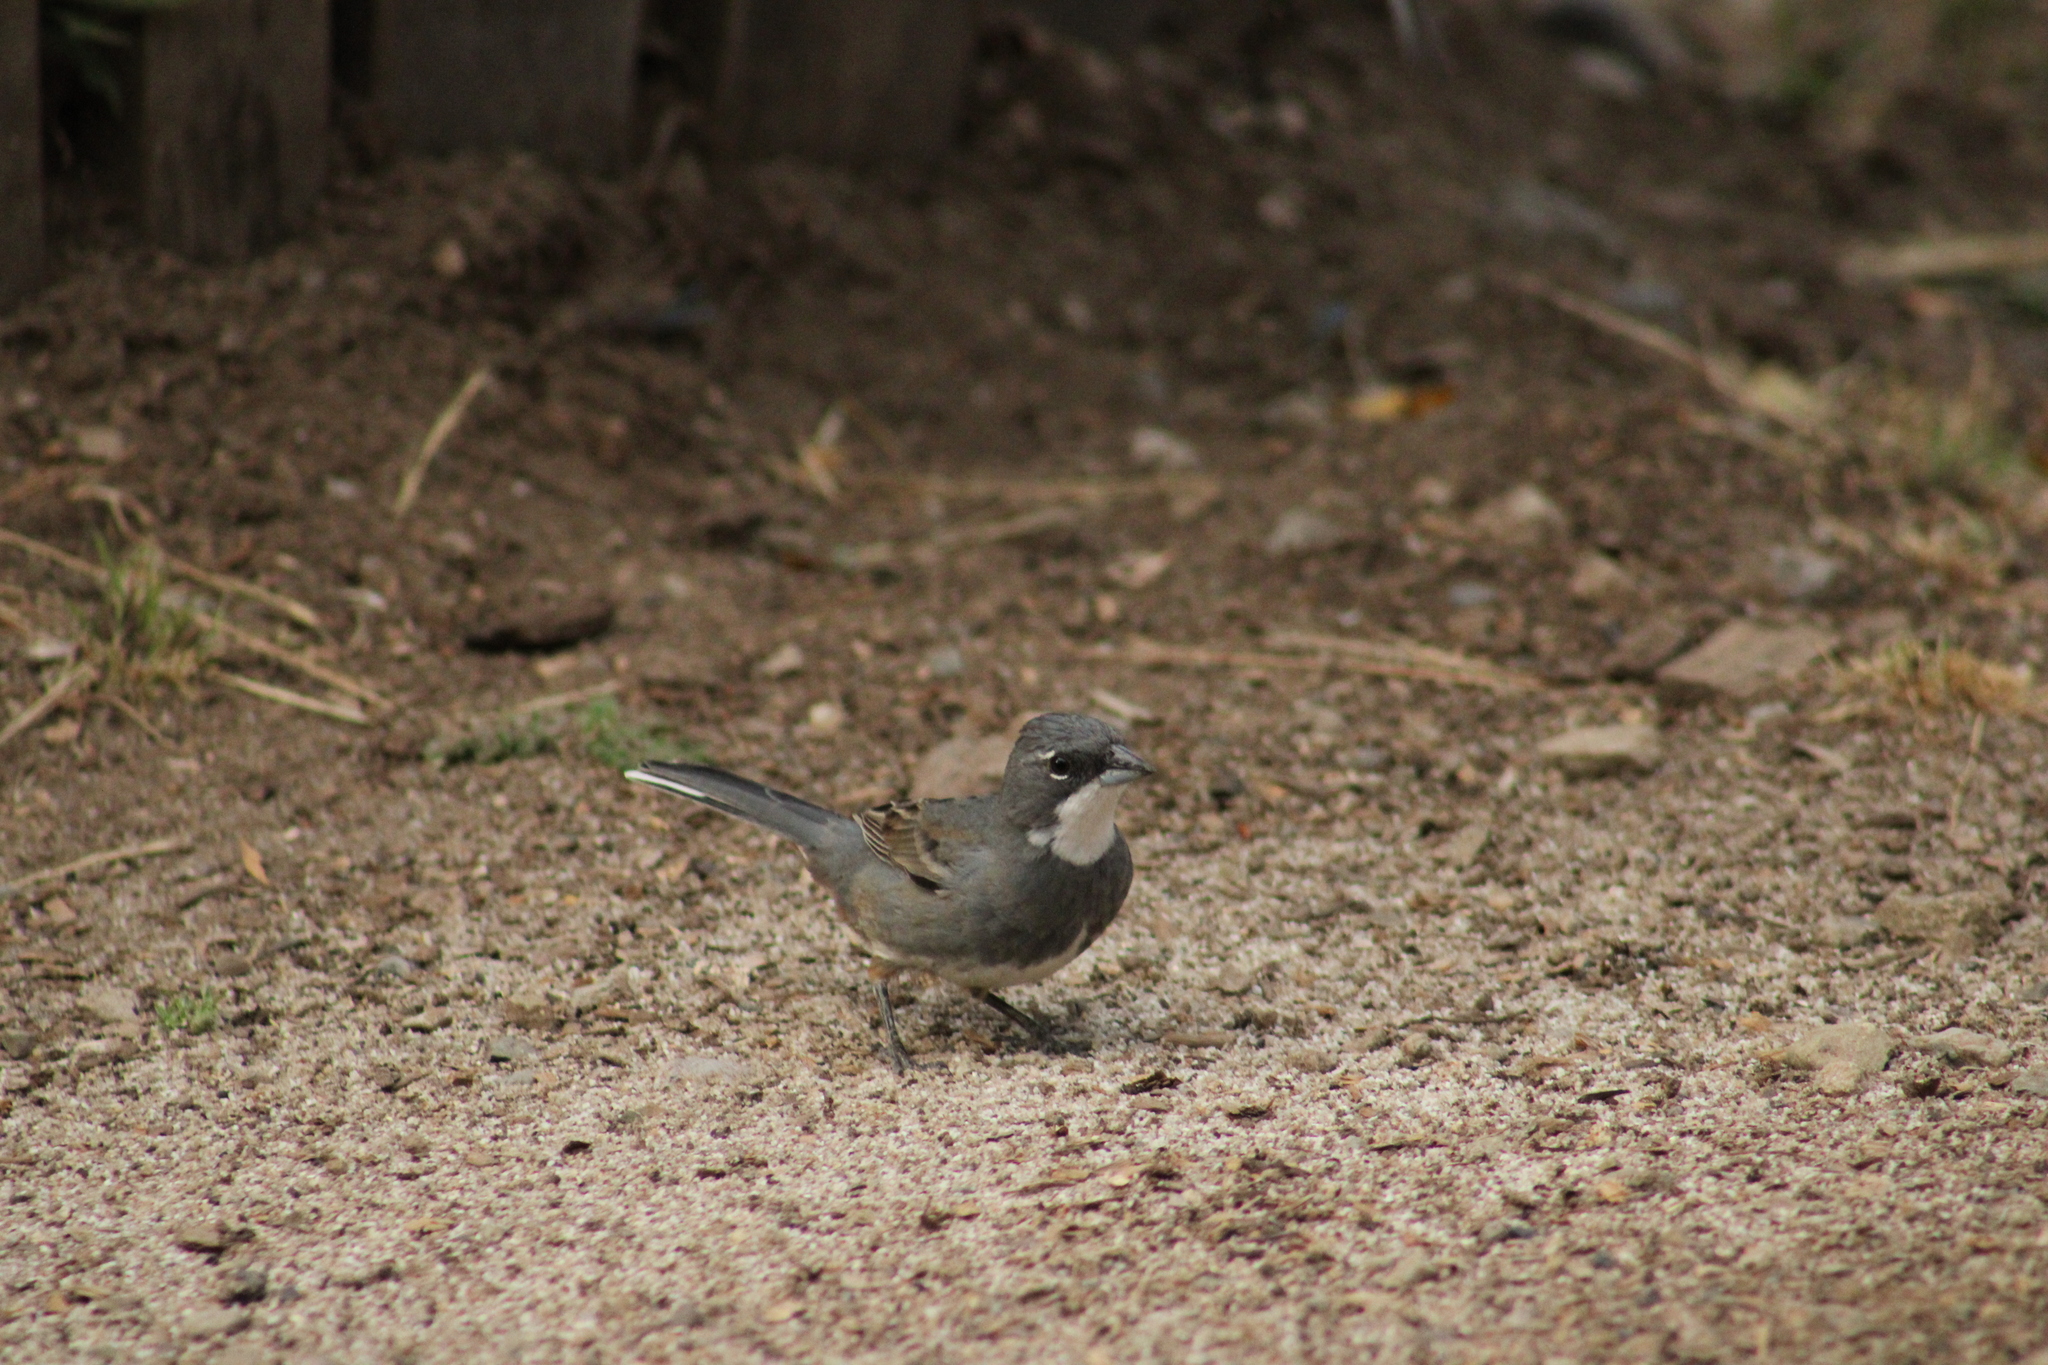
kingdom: Animalia
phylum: Chordata
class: Aves
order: Passeriformes
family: Thraupidae
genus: Diuca
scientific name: Diuca diuca
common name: Common diuca finch
